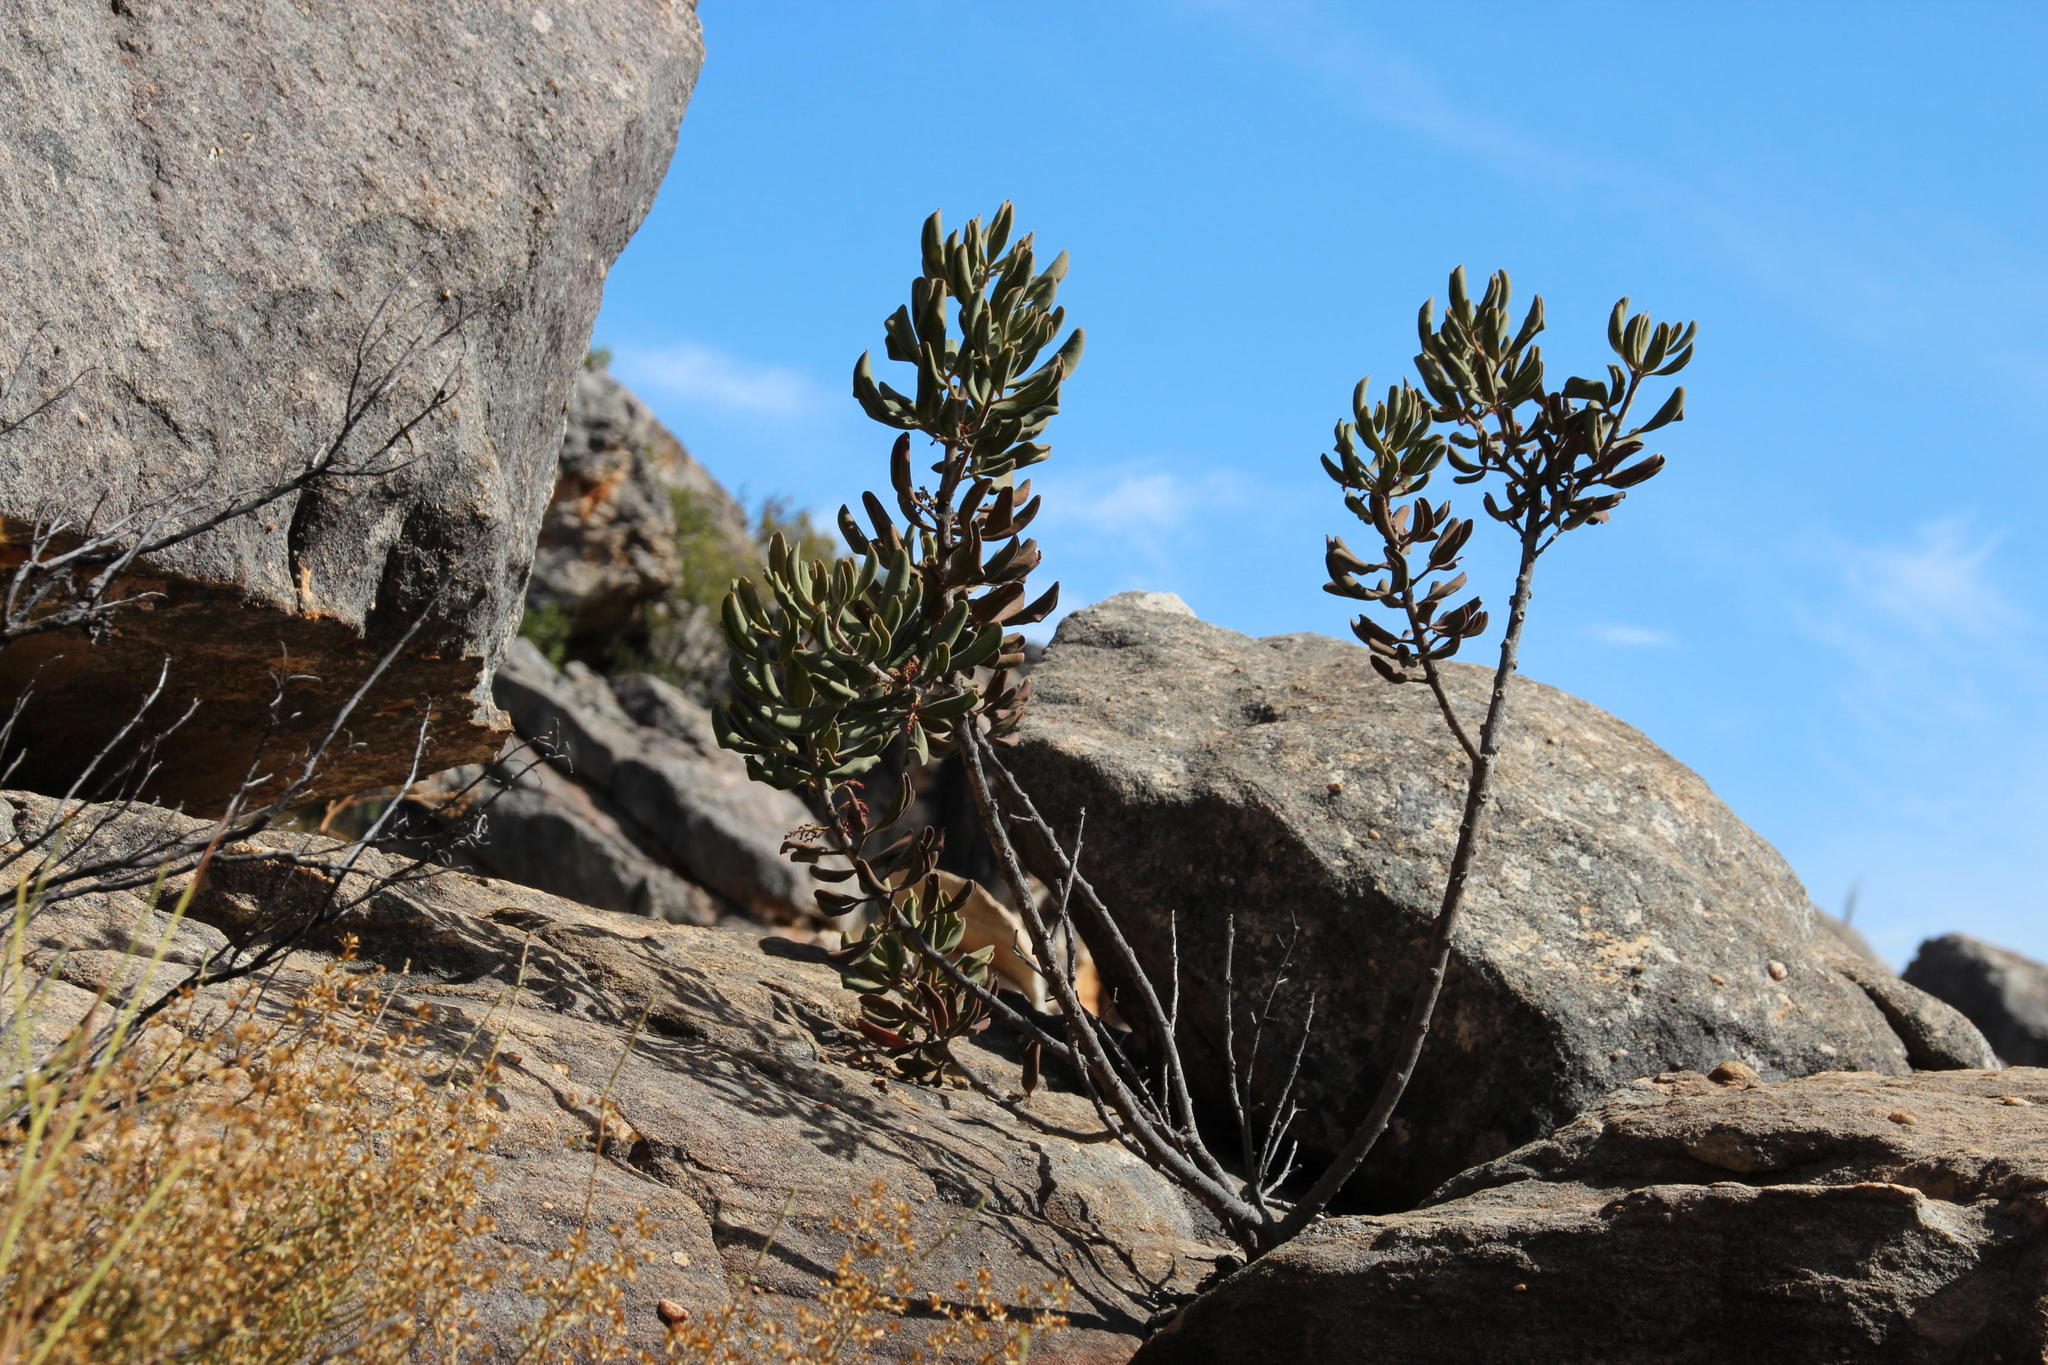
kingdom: Plantae
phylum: Tracheophyta
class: Magnoliopsida
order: Sapindales
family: Anacardiaceae
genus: Searsia
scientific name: Searsia scytophylla
